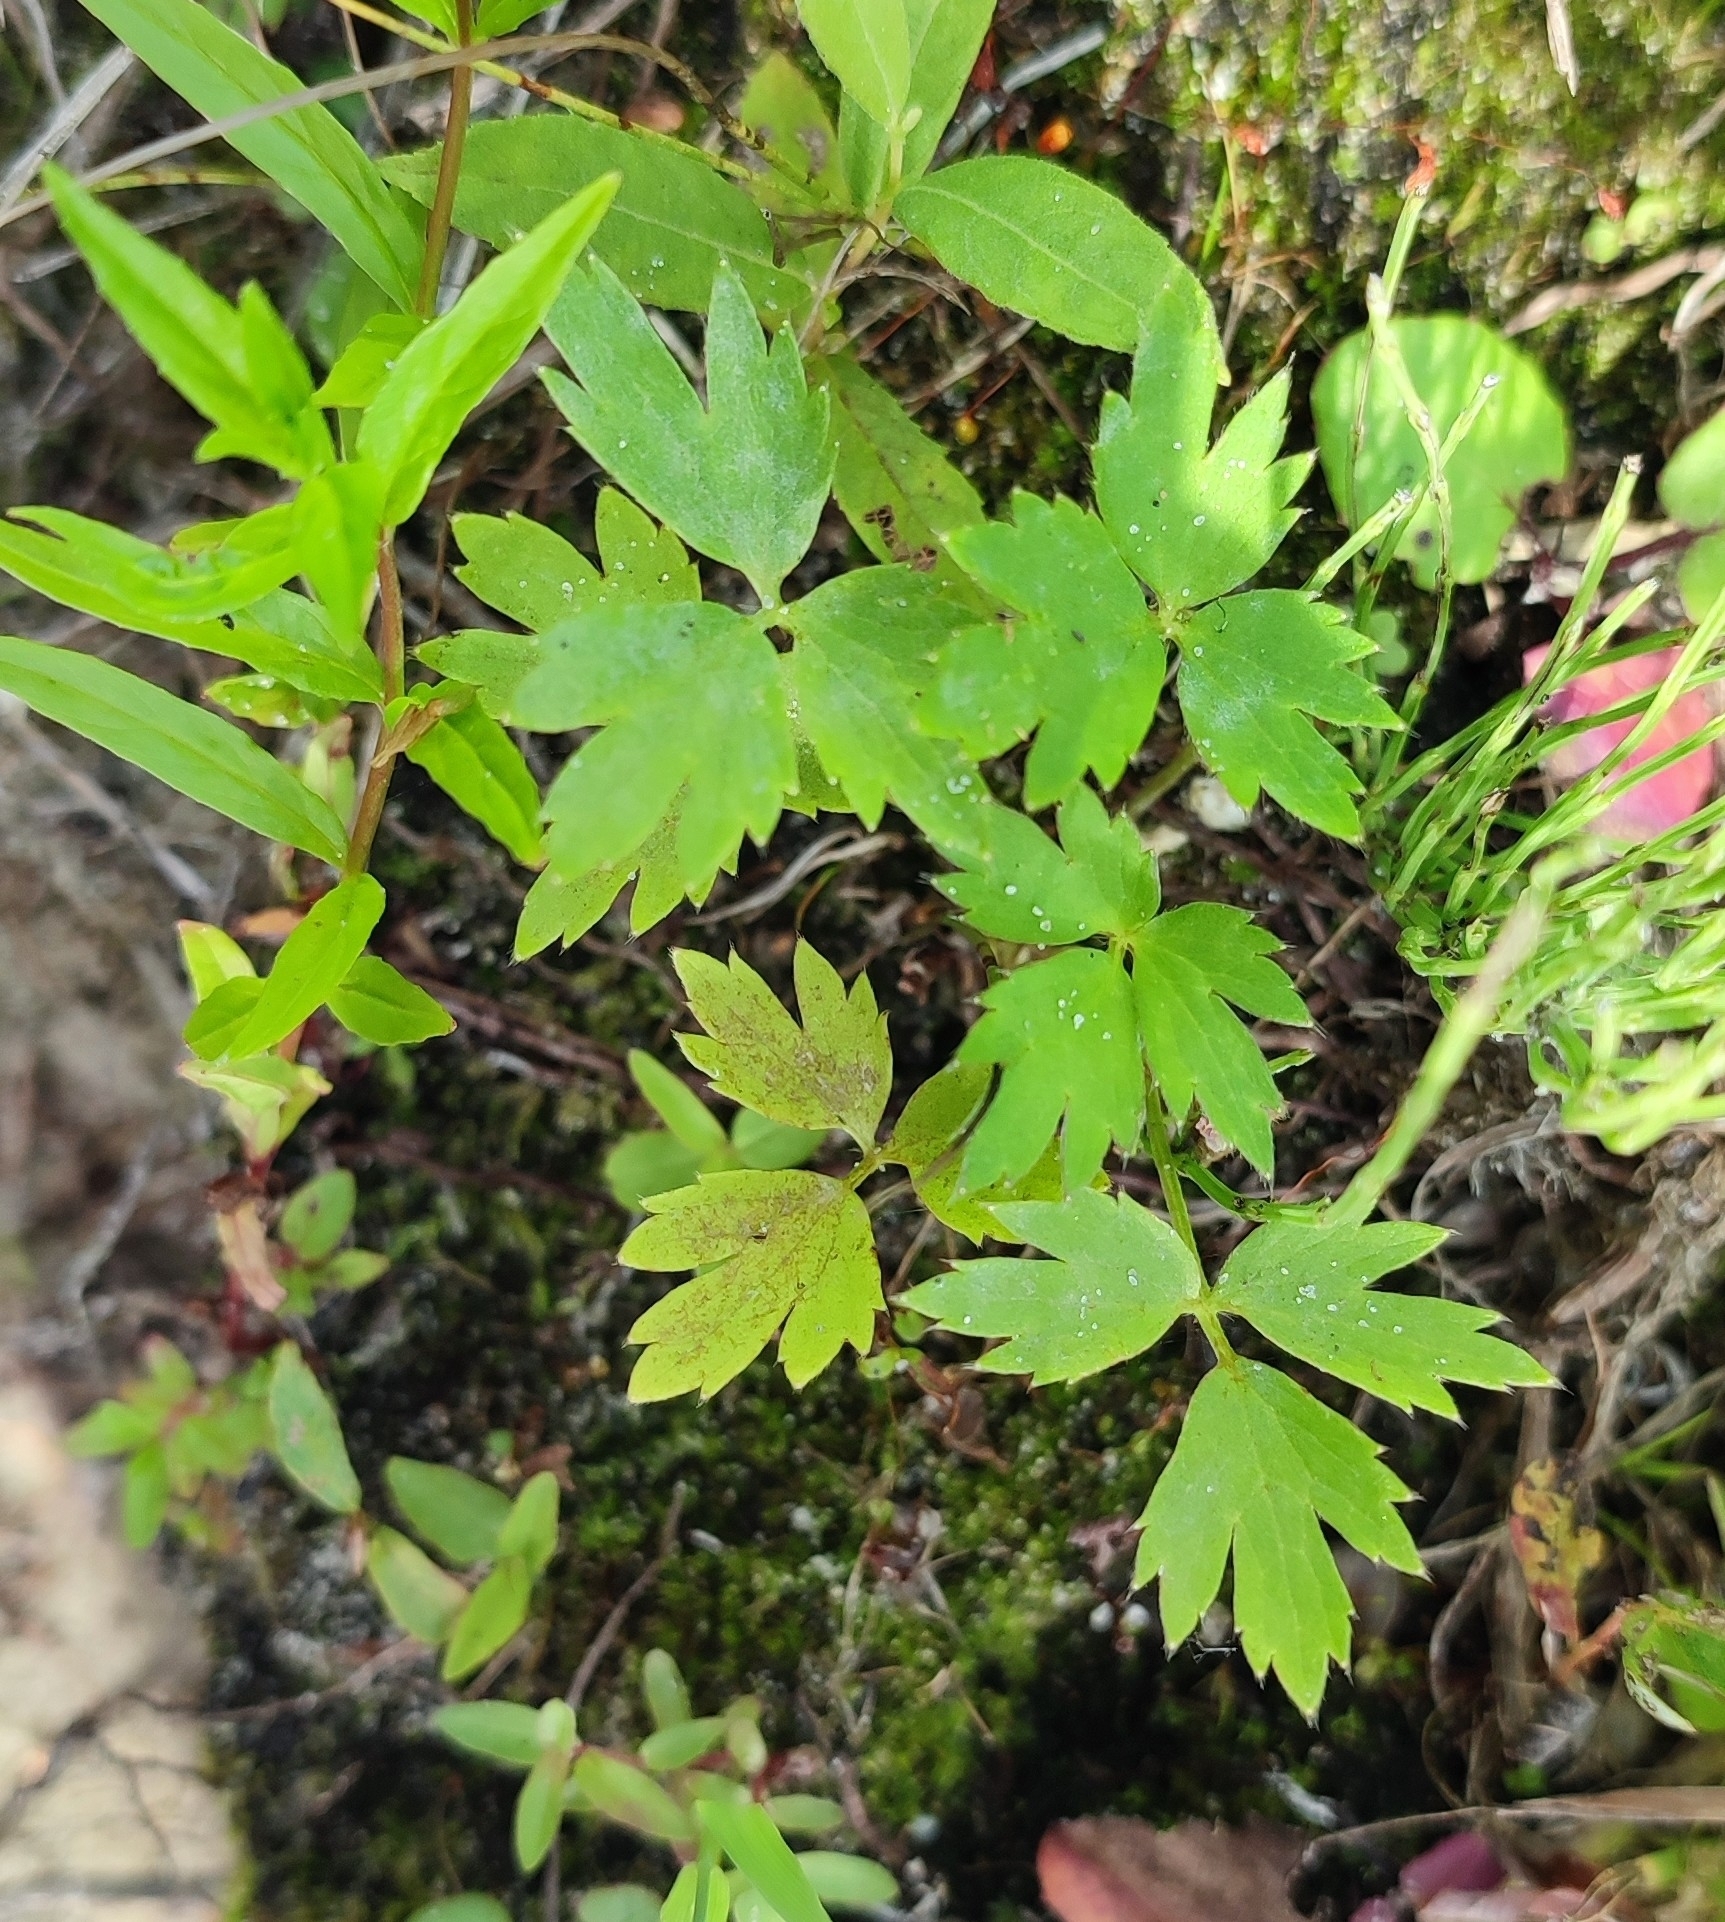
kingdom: Plantae
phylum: Tracheophyta
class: Magnoliopsida
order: Ranunculales
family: Ranunculaceae
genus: Ranunculus
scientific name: Ranunculus repens
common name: Creeping buttercup
